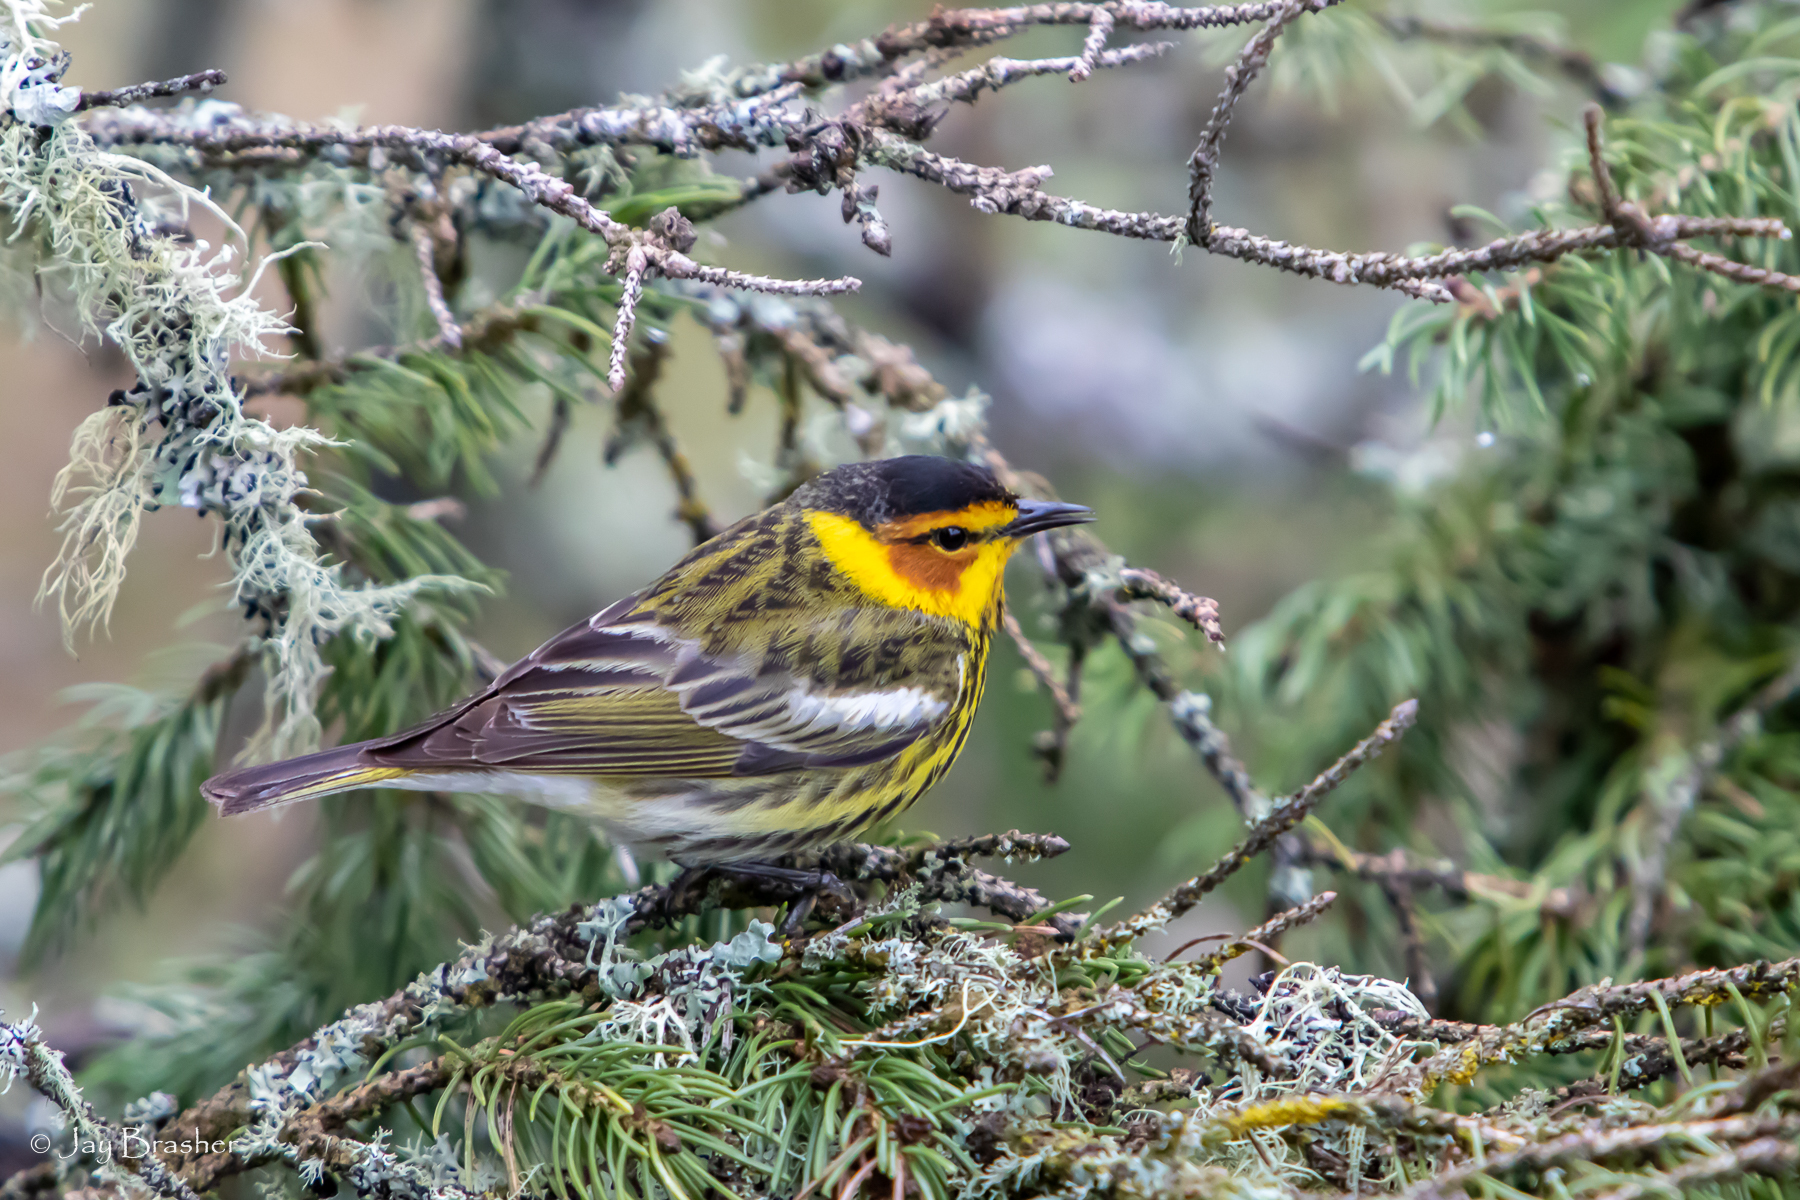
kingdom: Animalia
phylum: Chordata
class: Aves
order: Passeriformes
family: Parulidae
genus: Setophaga
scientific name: Setophaga tigrina
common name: Cape may warbler
